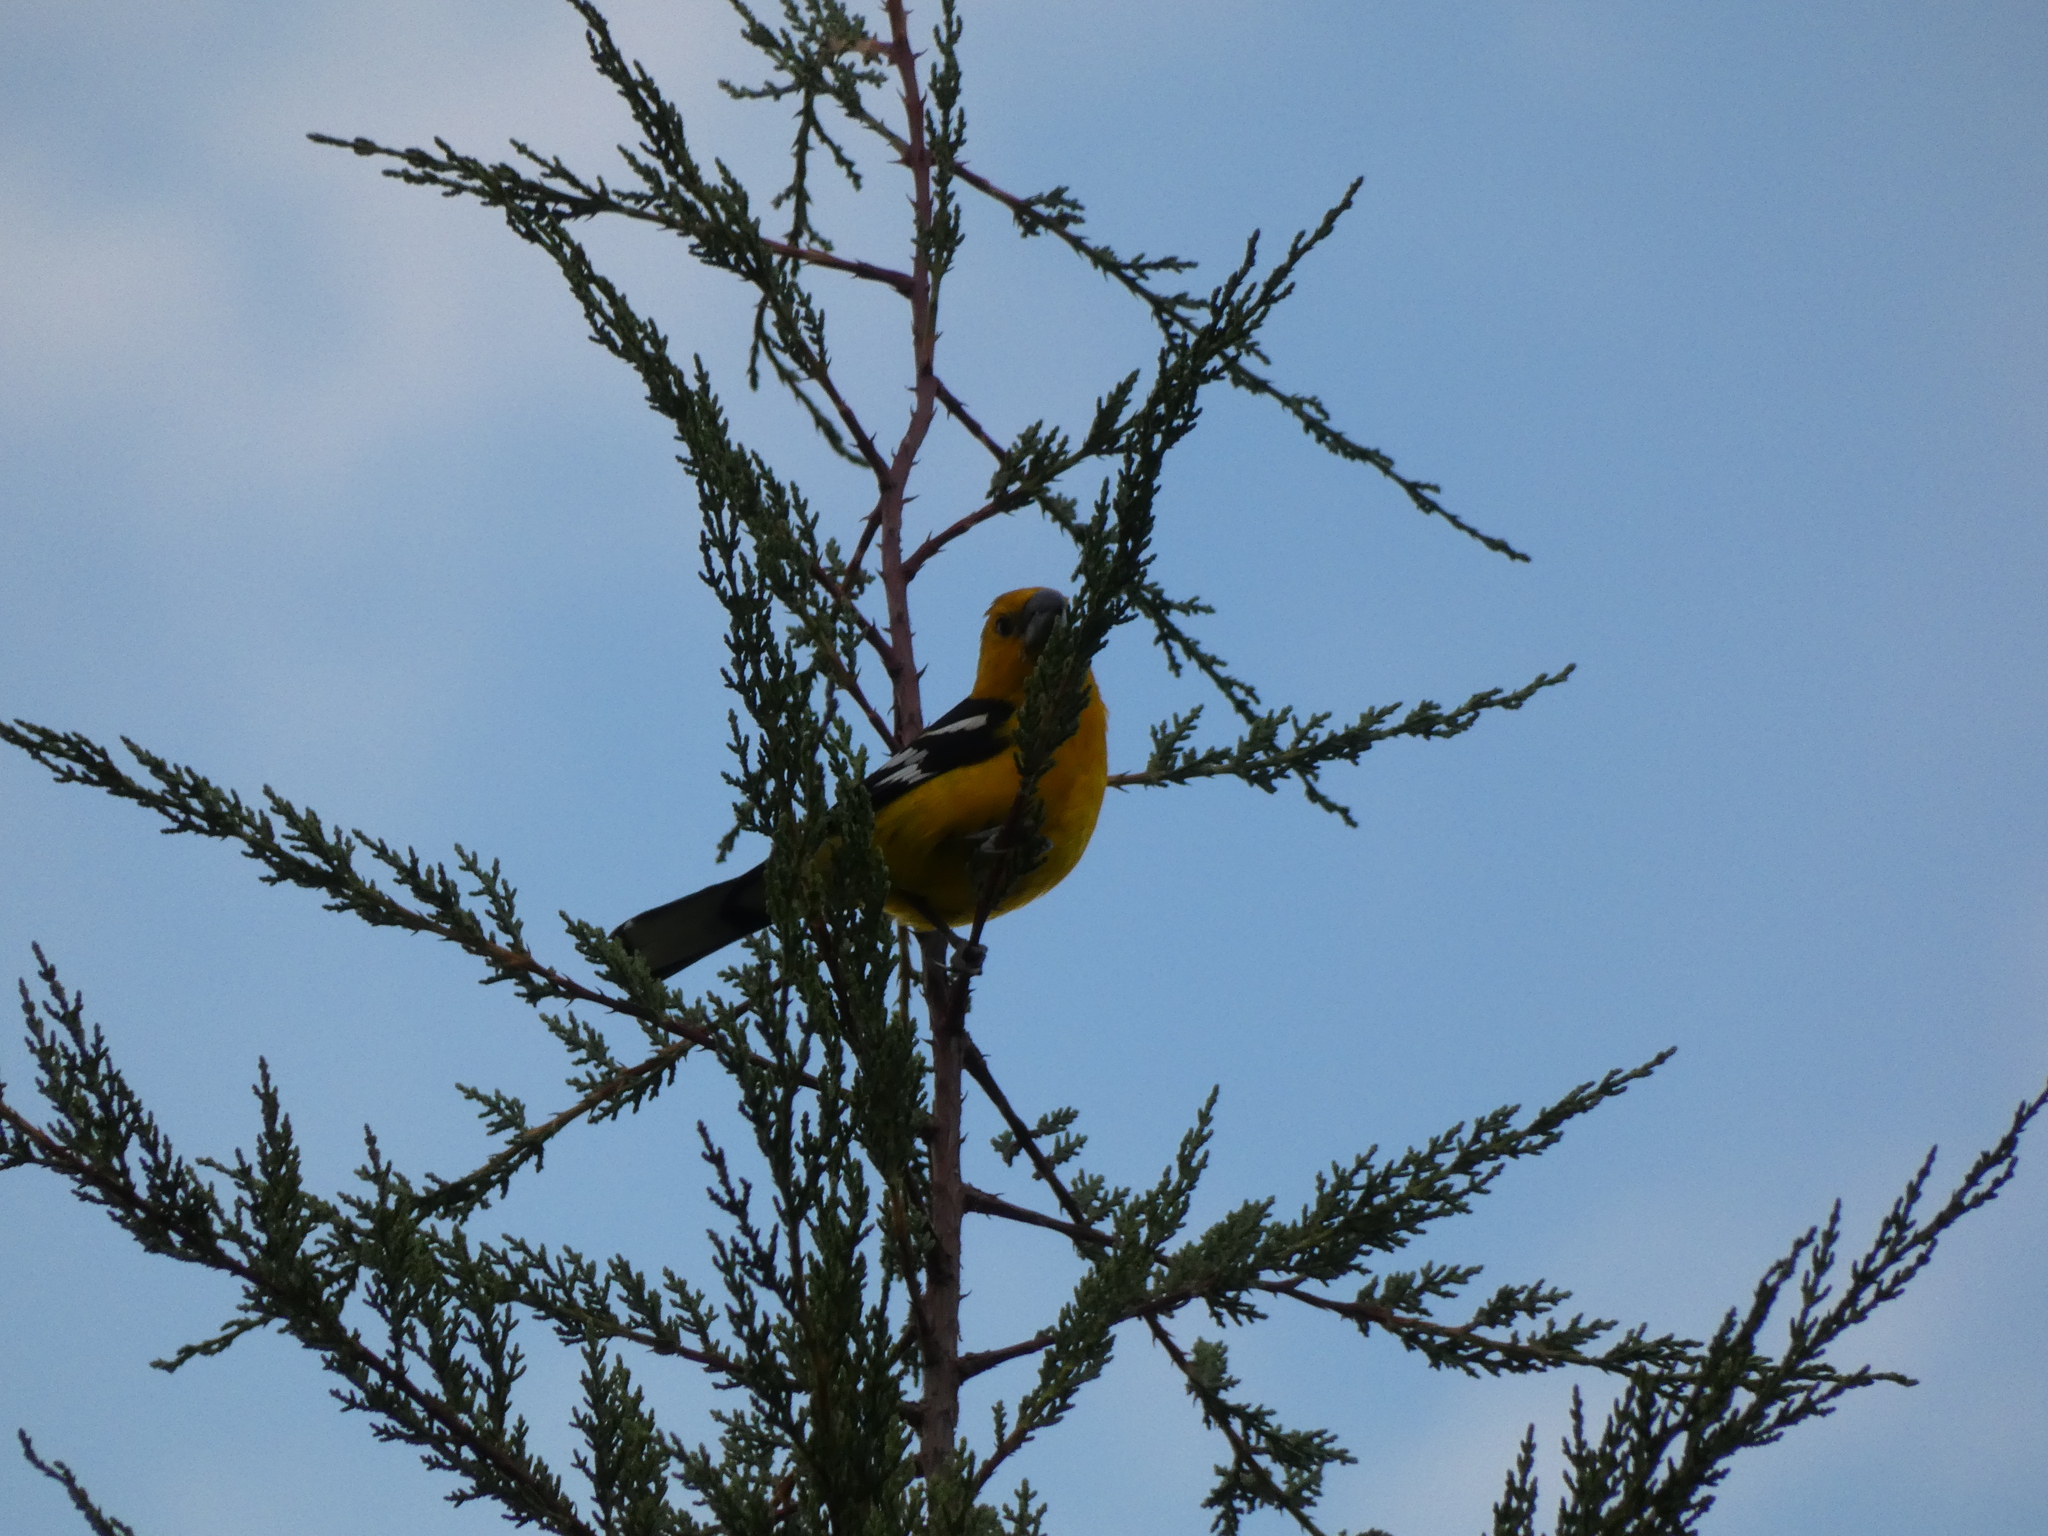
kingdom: Animalia
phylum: Chordata
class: Aves
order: Passeriformes
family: Cardinalidae
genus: Pheucticus
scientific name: Pheucticus chrysogaster
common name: Golden grosbeak
